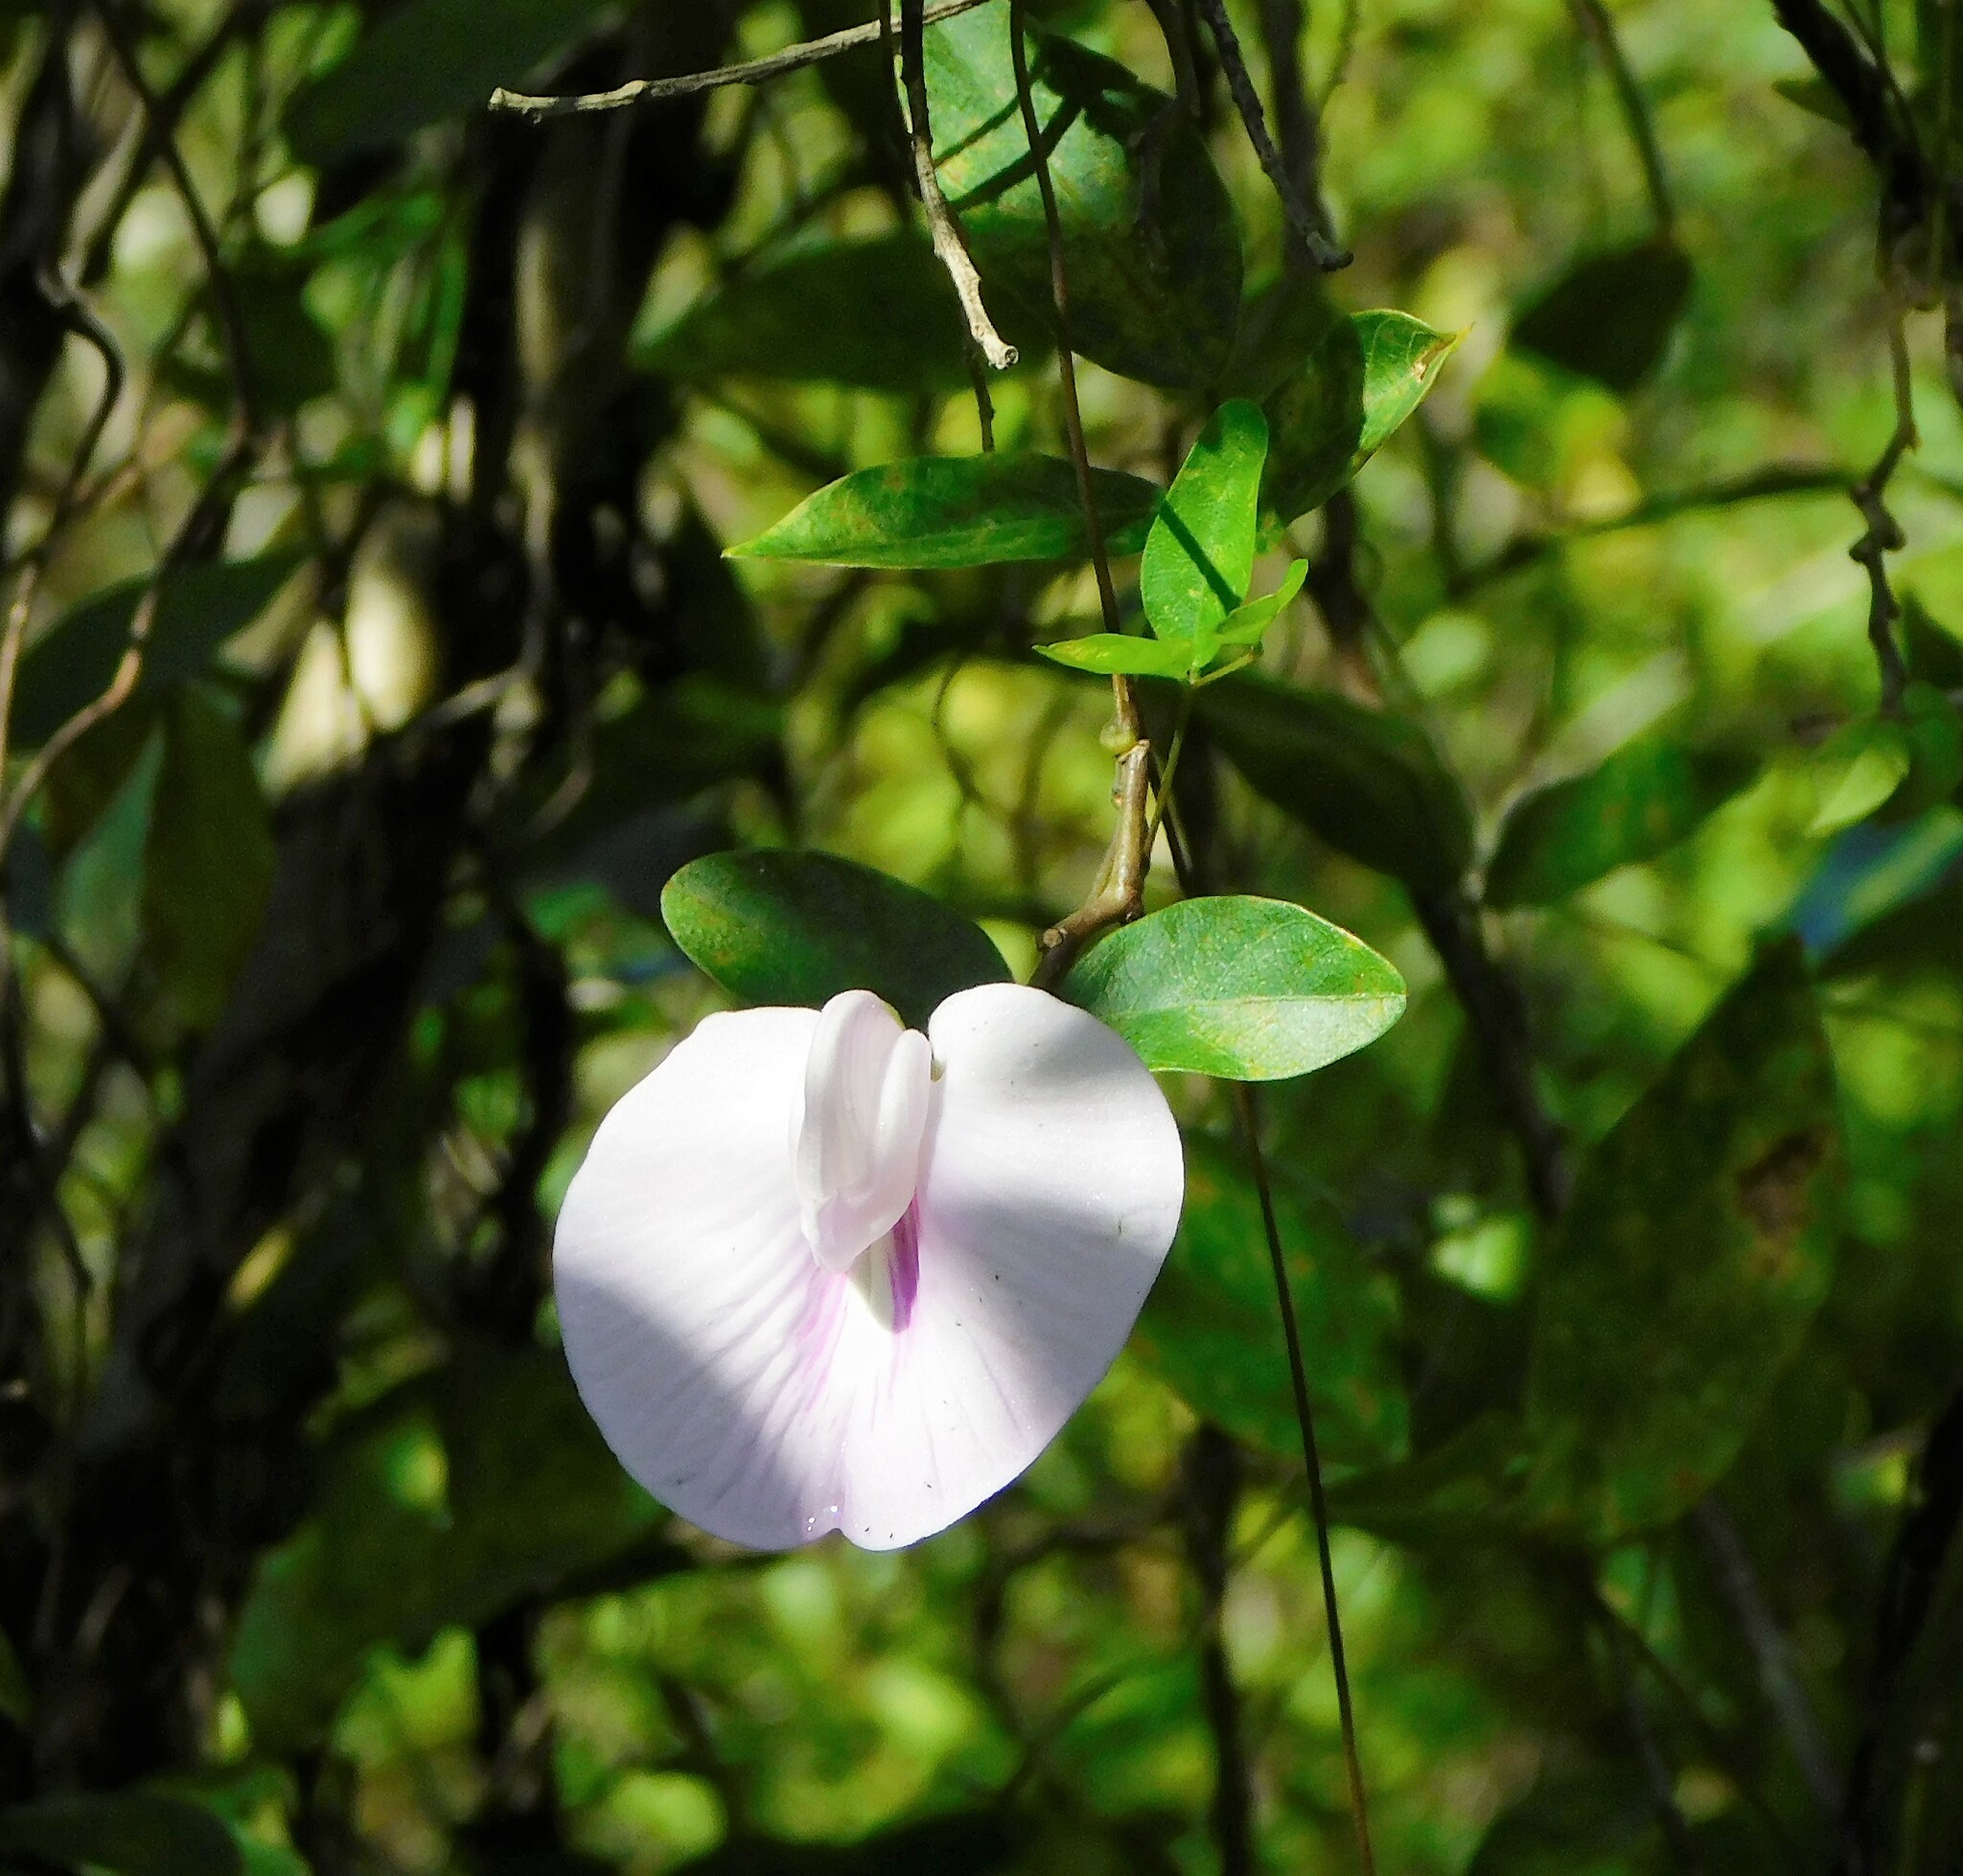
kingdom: Plantae
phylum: Tracheophyta
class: Magnoliopsida
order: Fabales
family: Fabaceae
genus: Centrosema
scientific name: Centrosema arenicola
